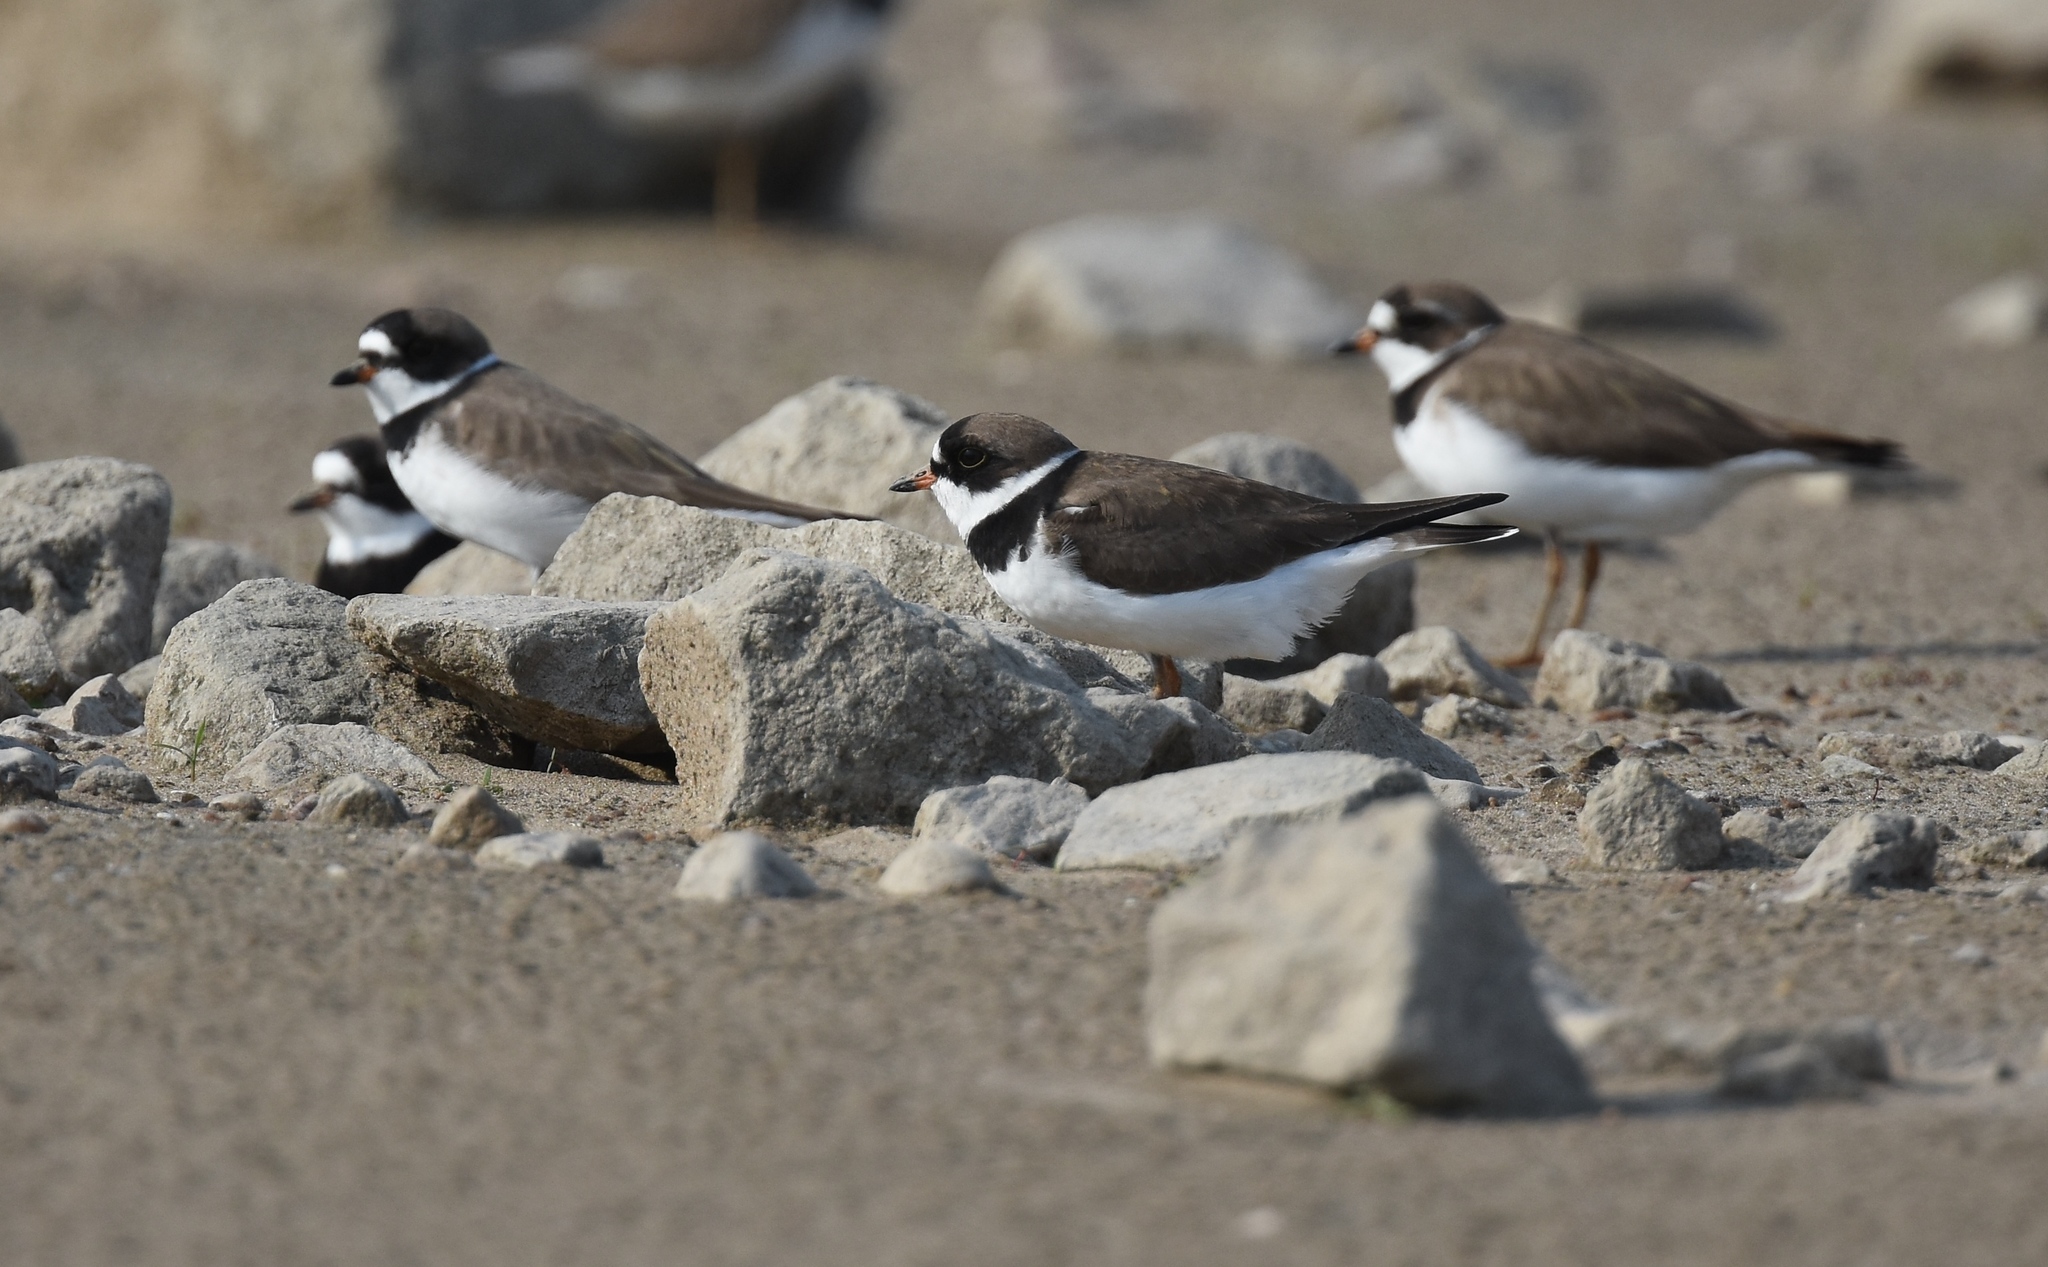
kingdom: Animalia
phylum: Chordata
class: Aves
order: Charadriiformes
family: Charadriidae
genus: Charadrius
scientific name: Charadrius semipalmatus
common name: Semipalmated plover
